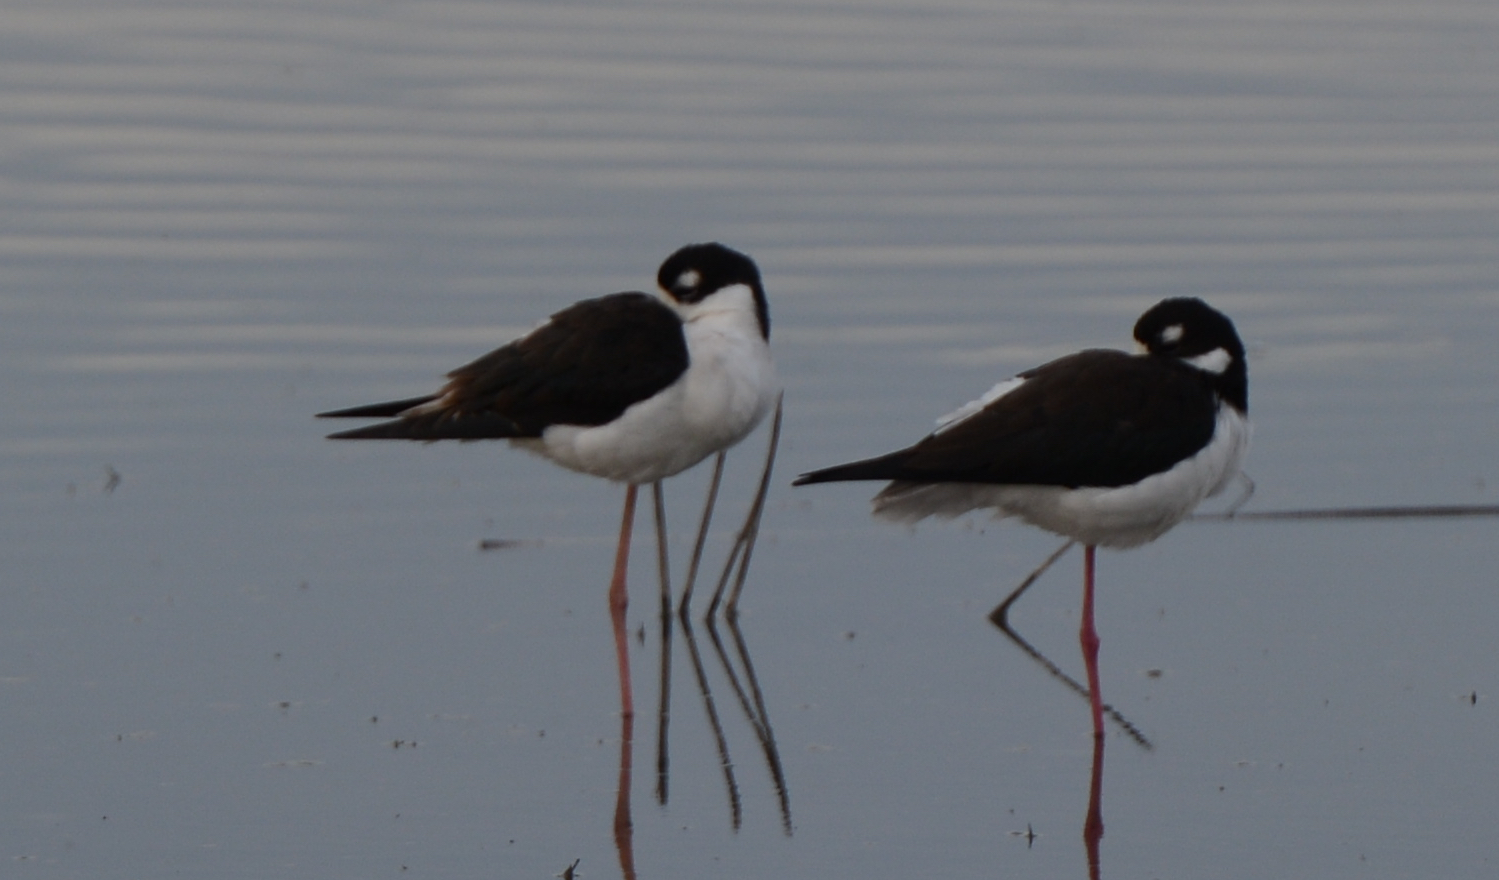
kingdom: Animalia
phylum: Chordata
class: Aves
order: Charadriiformes
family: Recurvirostridae
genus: Himantopus
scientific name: Himantopus mexicanus
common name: Black-necked stilt
